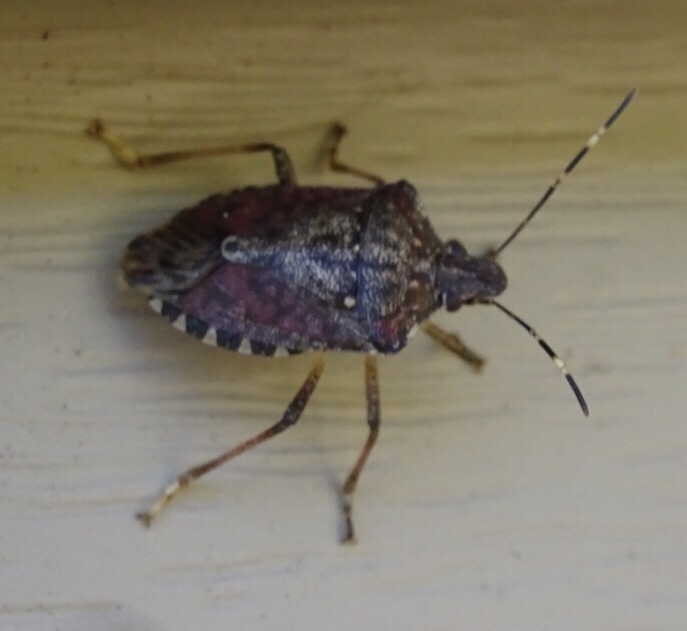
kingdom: Animalia
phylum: Arthropoda
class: Insecta
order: Hemiptera
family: Pentatomidae
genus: Halyomorpha
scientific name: Halyomorpha halys
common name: Brown marmorated stink bug
